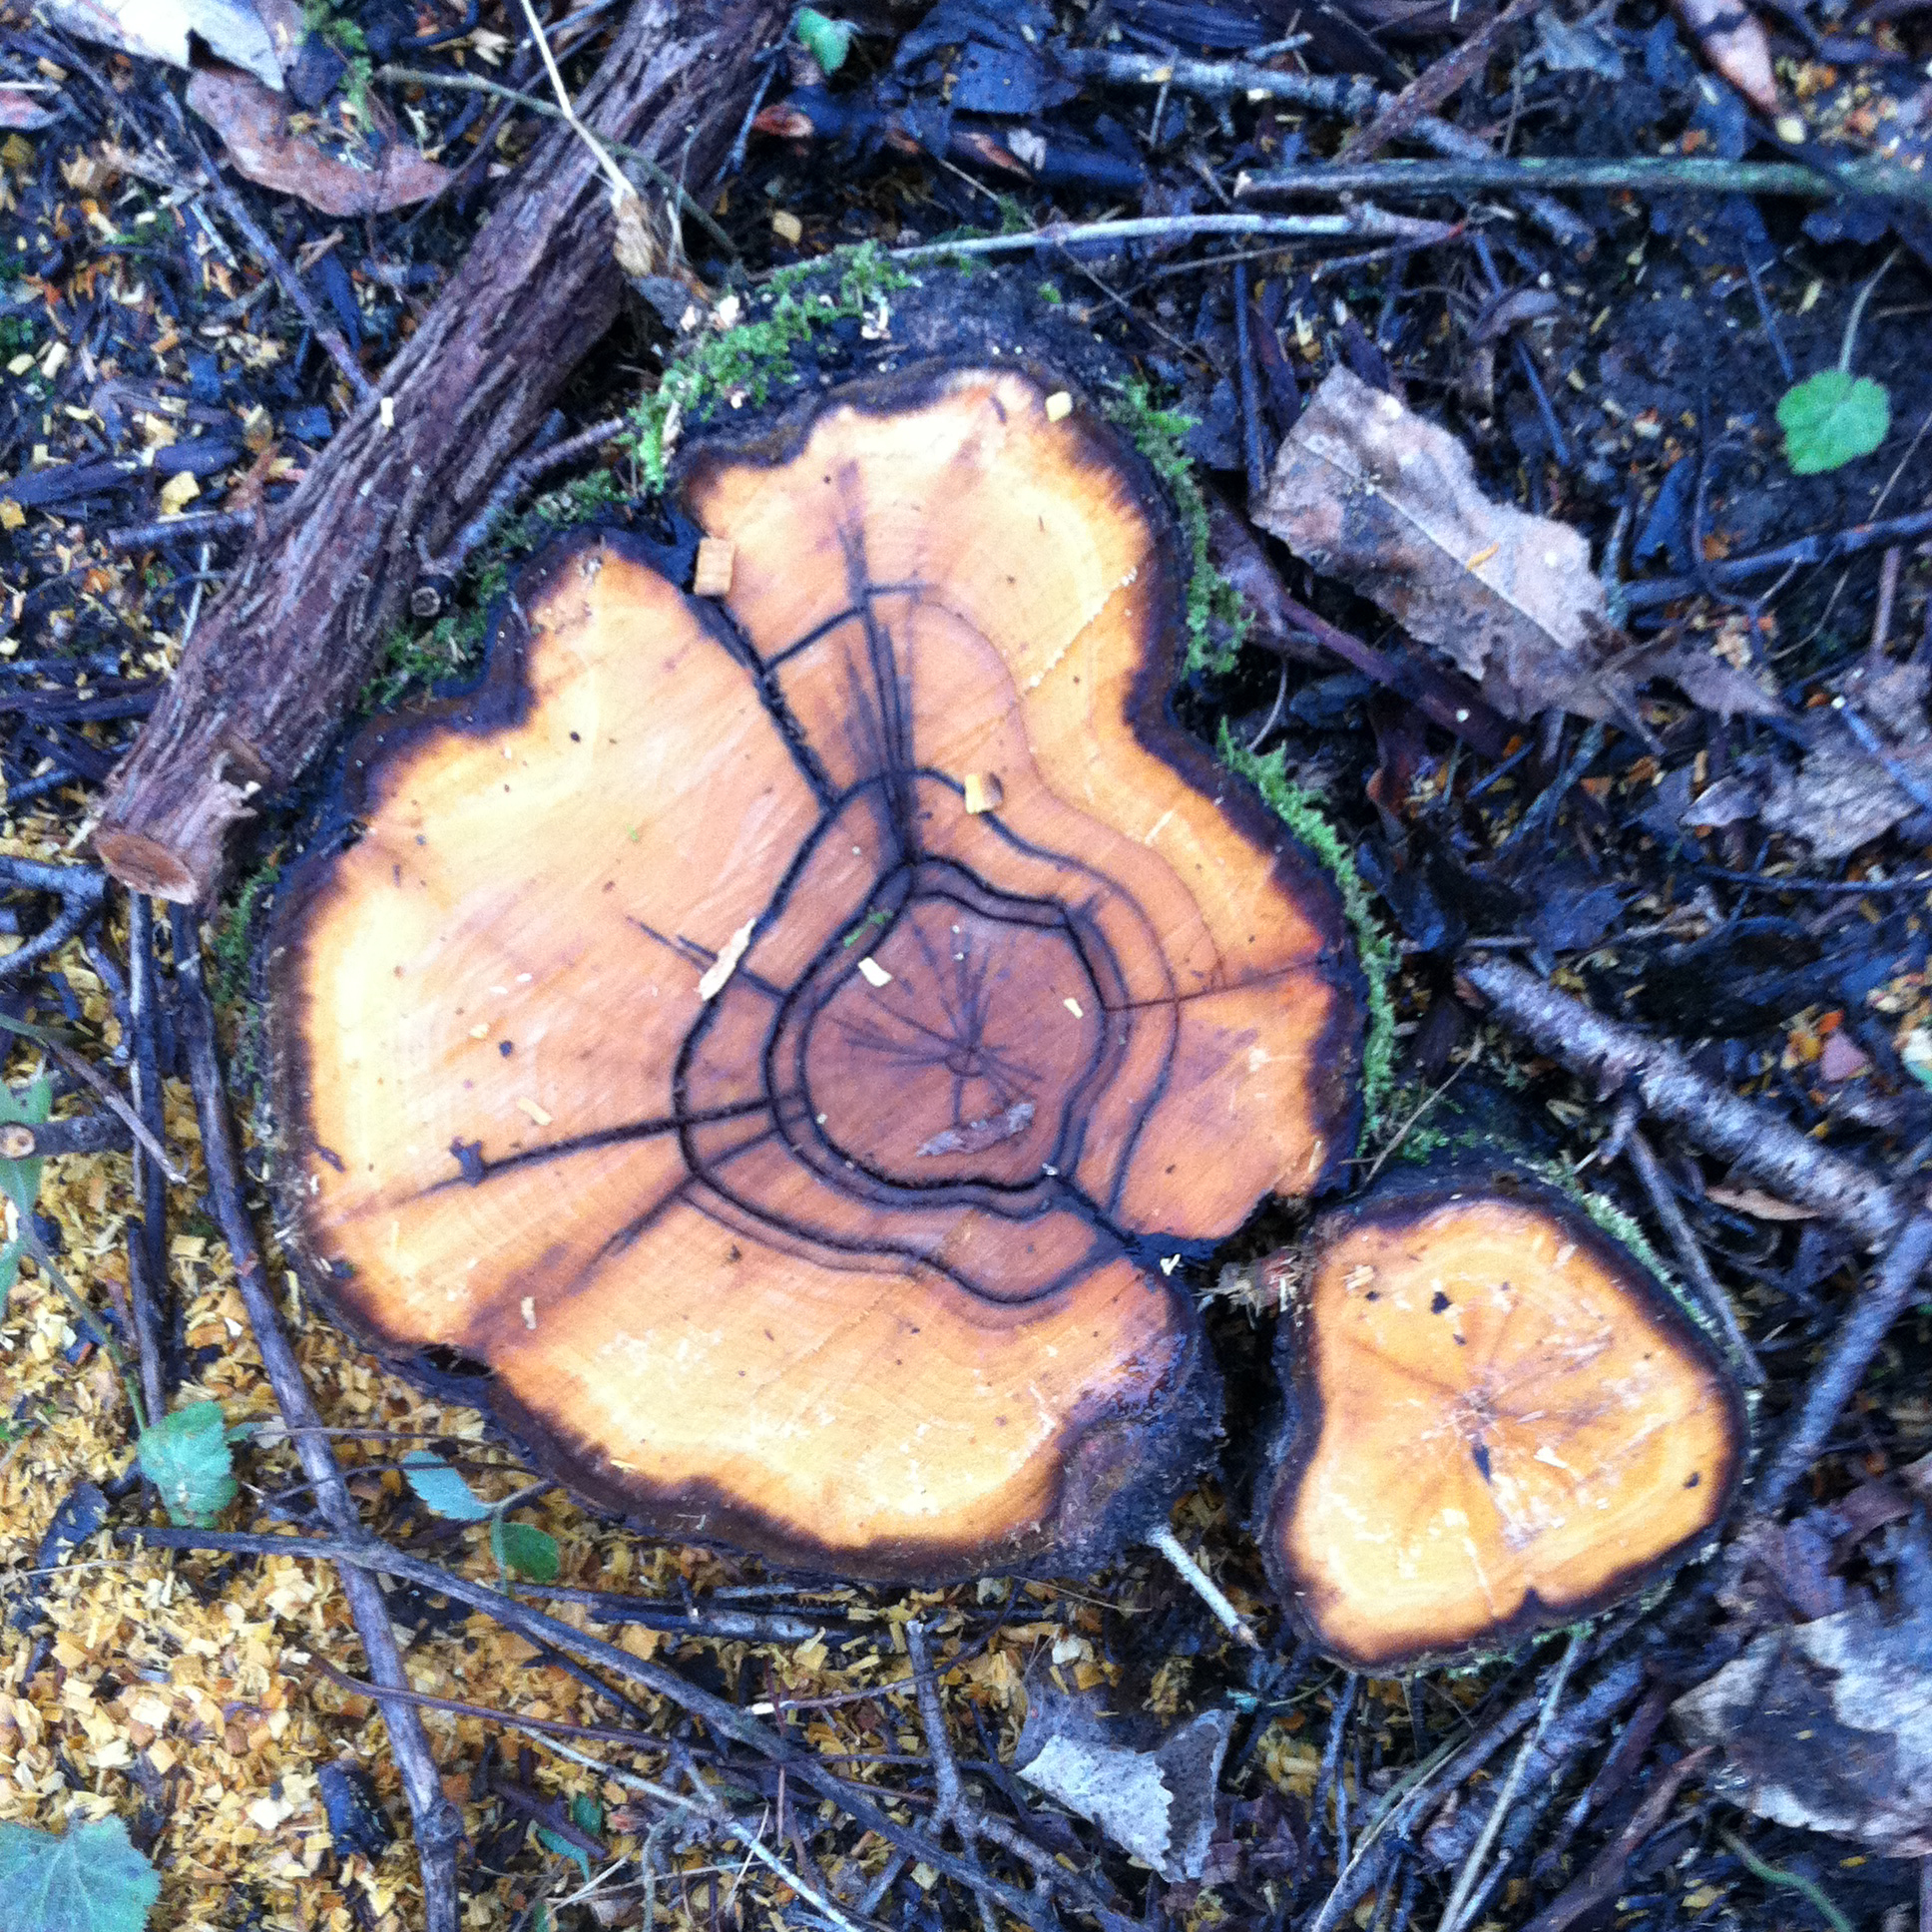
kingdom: Plantae
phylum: Tracheophyta
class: Magnoliopsida
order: Rosales
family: Rhamnaceae
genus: Rhamnus
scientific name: Rhamnus cathartica
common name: Common buckthorn
